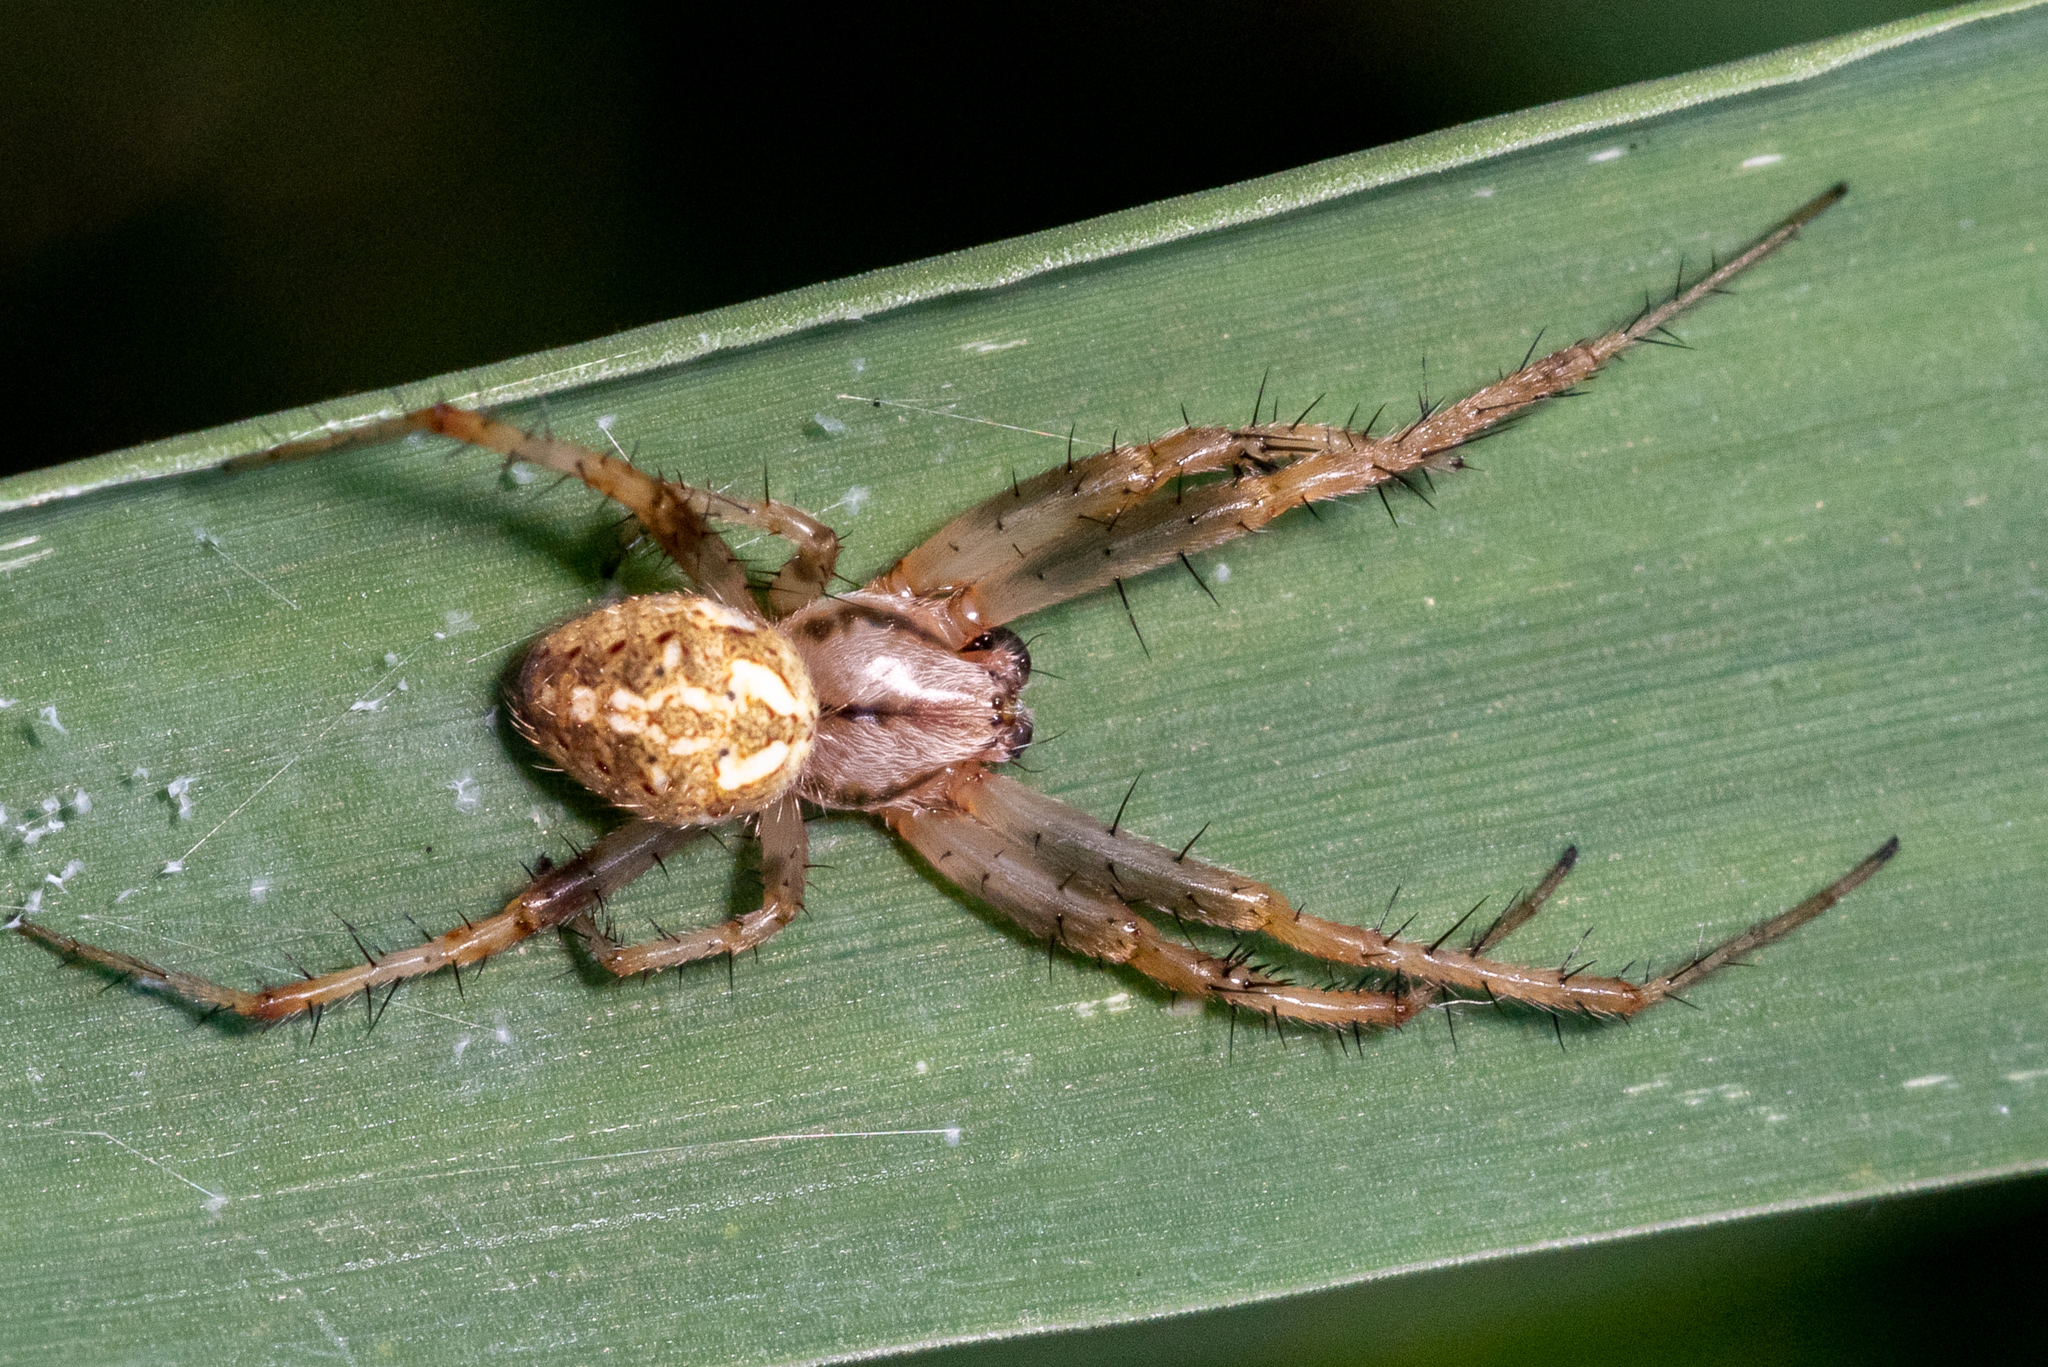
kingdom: Animalia
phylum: Arthropoda
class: Arachnida
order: Araneae
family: Araneidae
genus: Neoscona
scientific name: Neoscona arabesca
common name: Orb weavers
